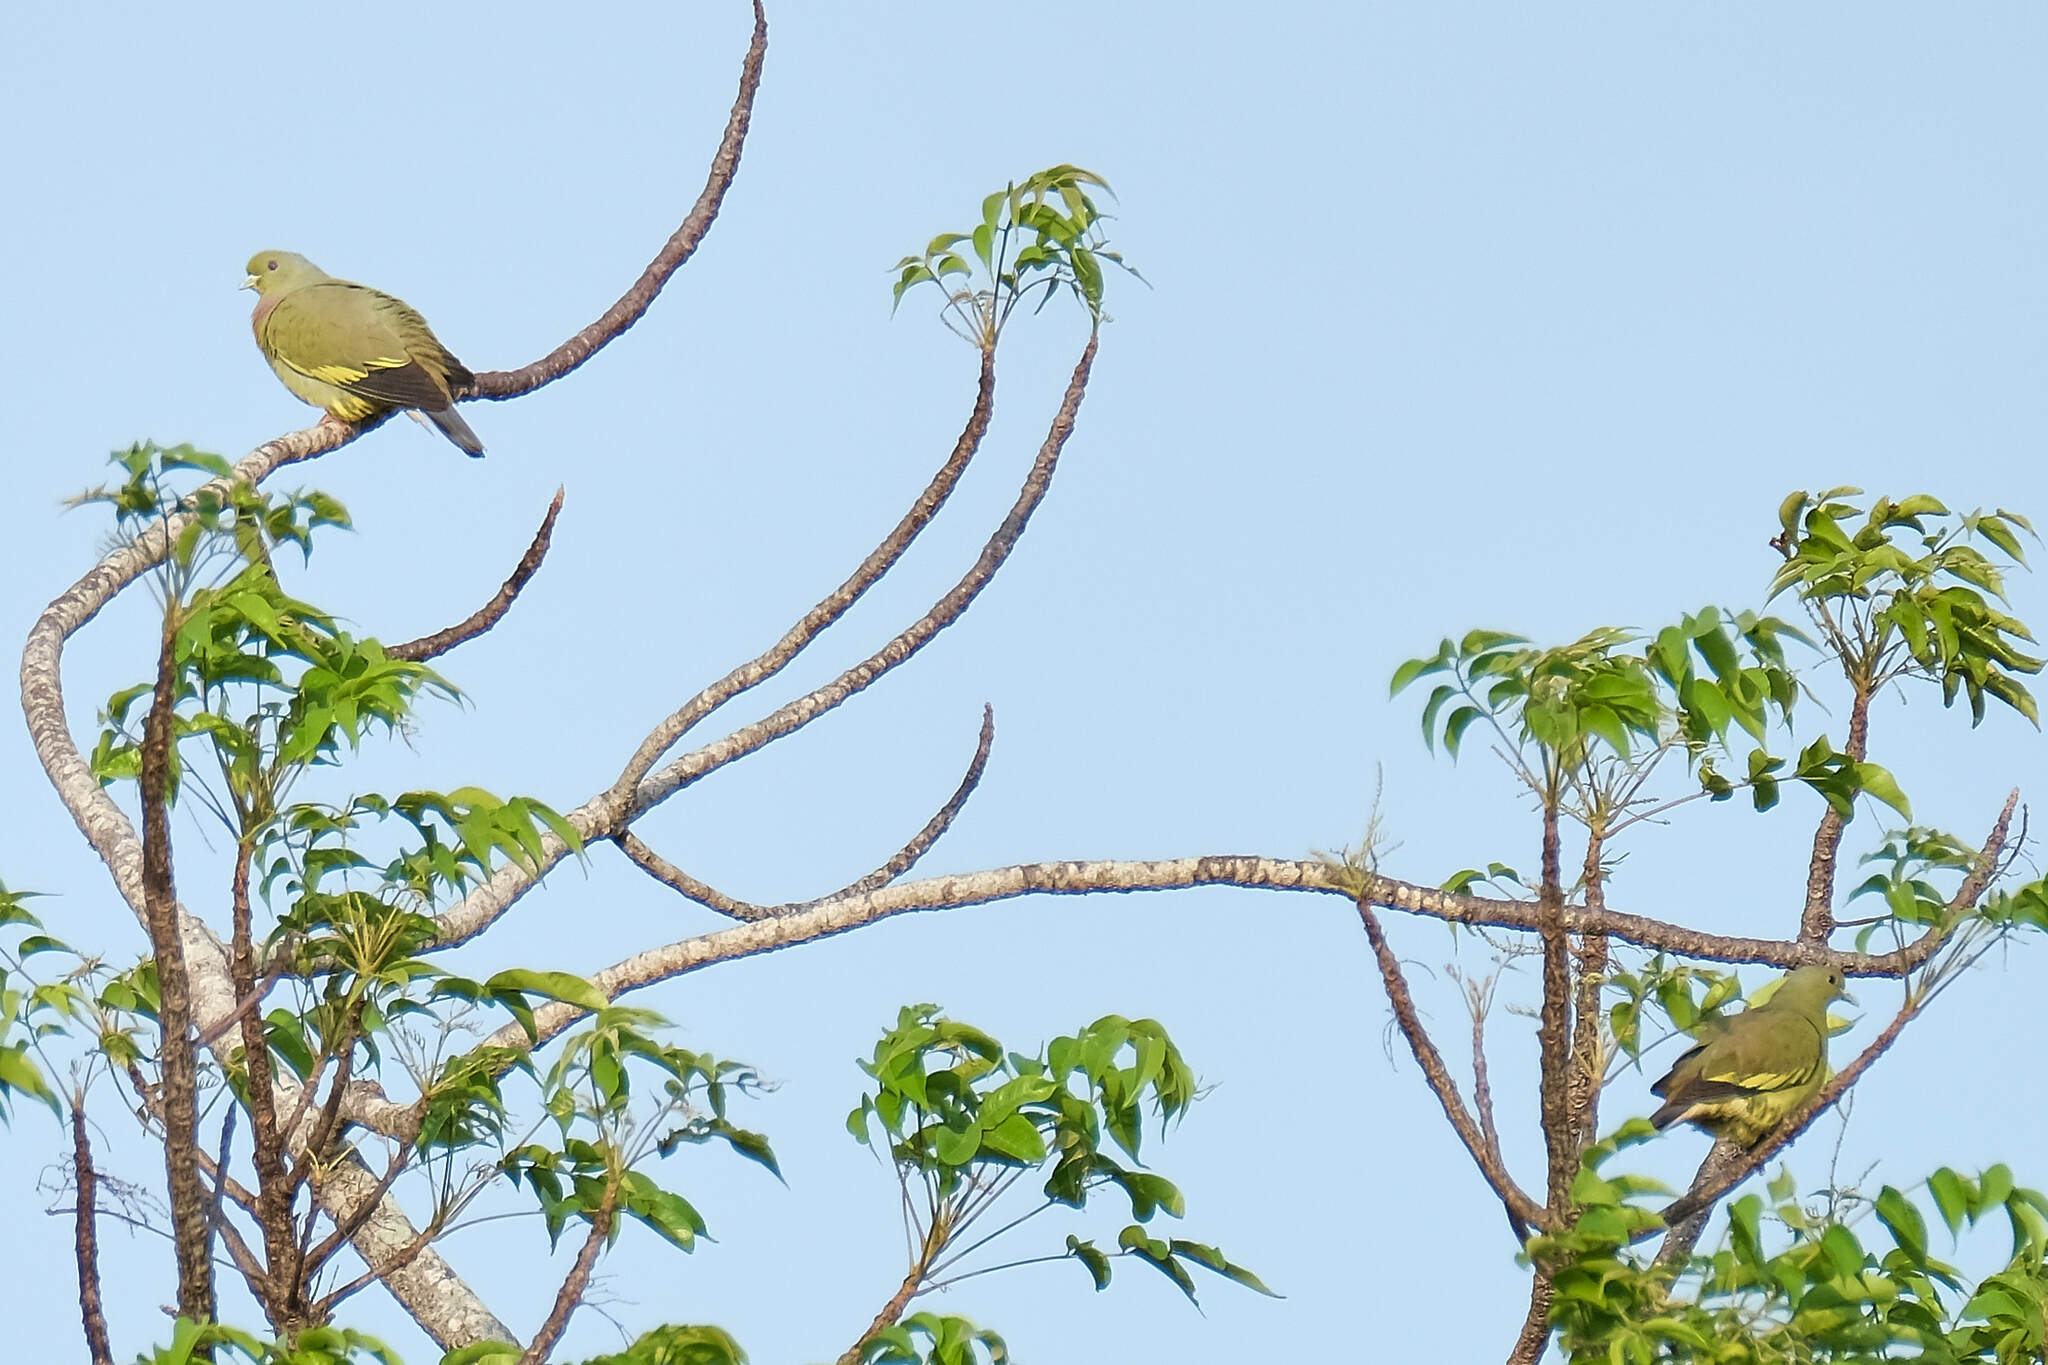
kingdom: Animalia
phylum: Chordata
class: Aves
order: Columbiformes
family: Columbidae
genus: Treron
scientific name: Treron vernans
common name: Pink-necked green pigeon
